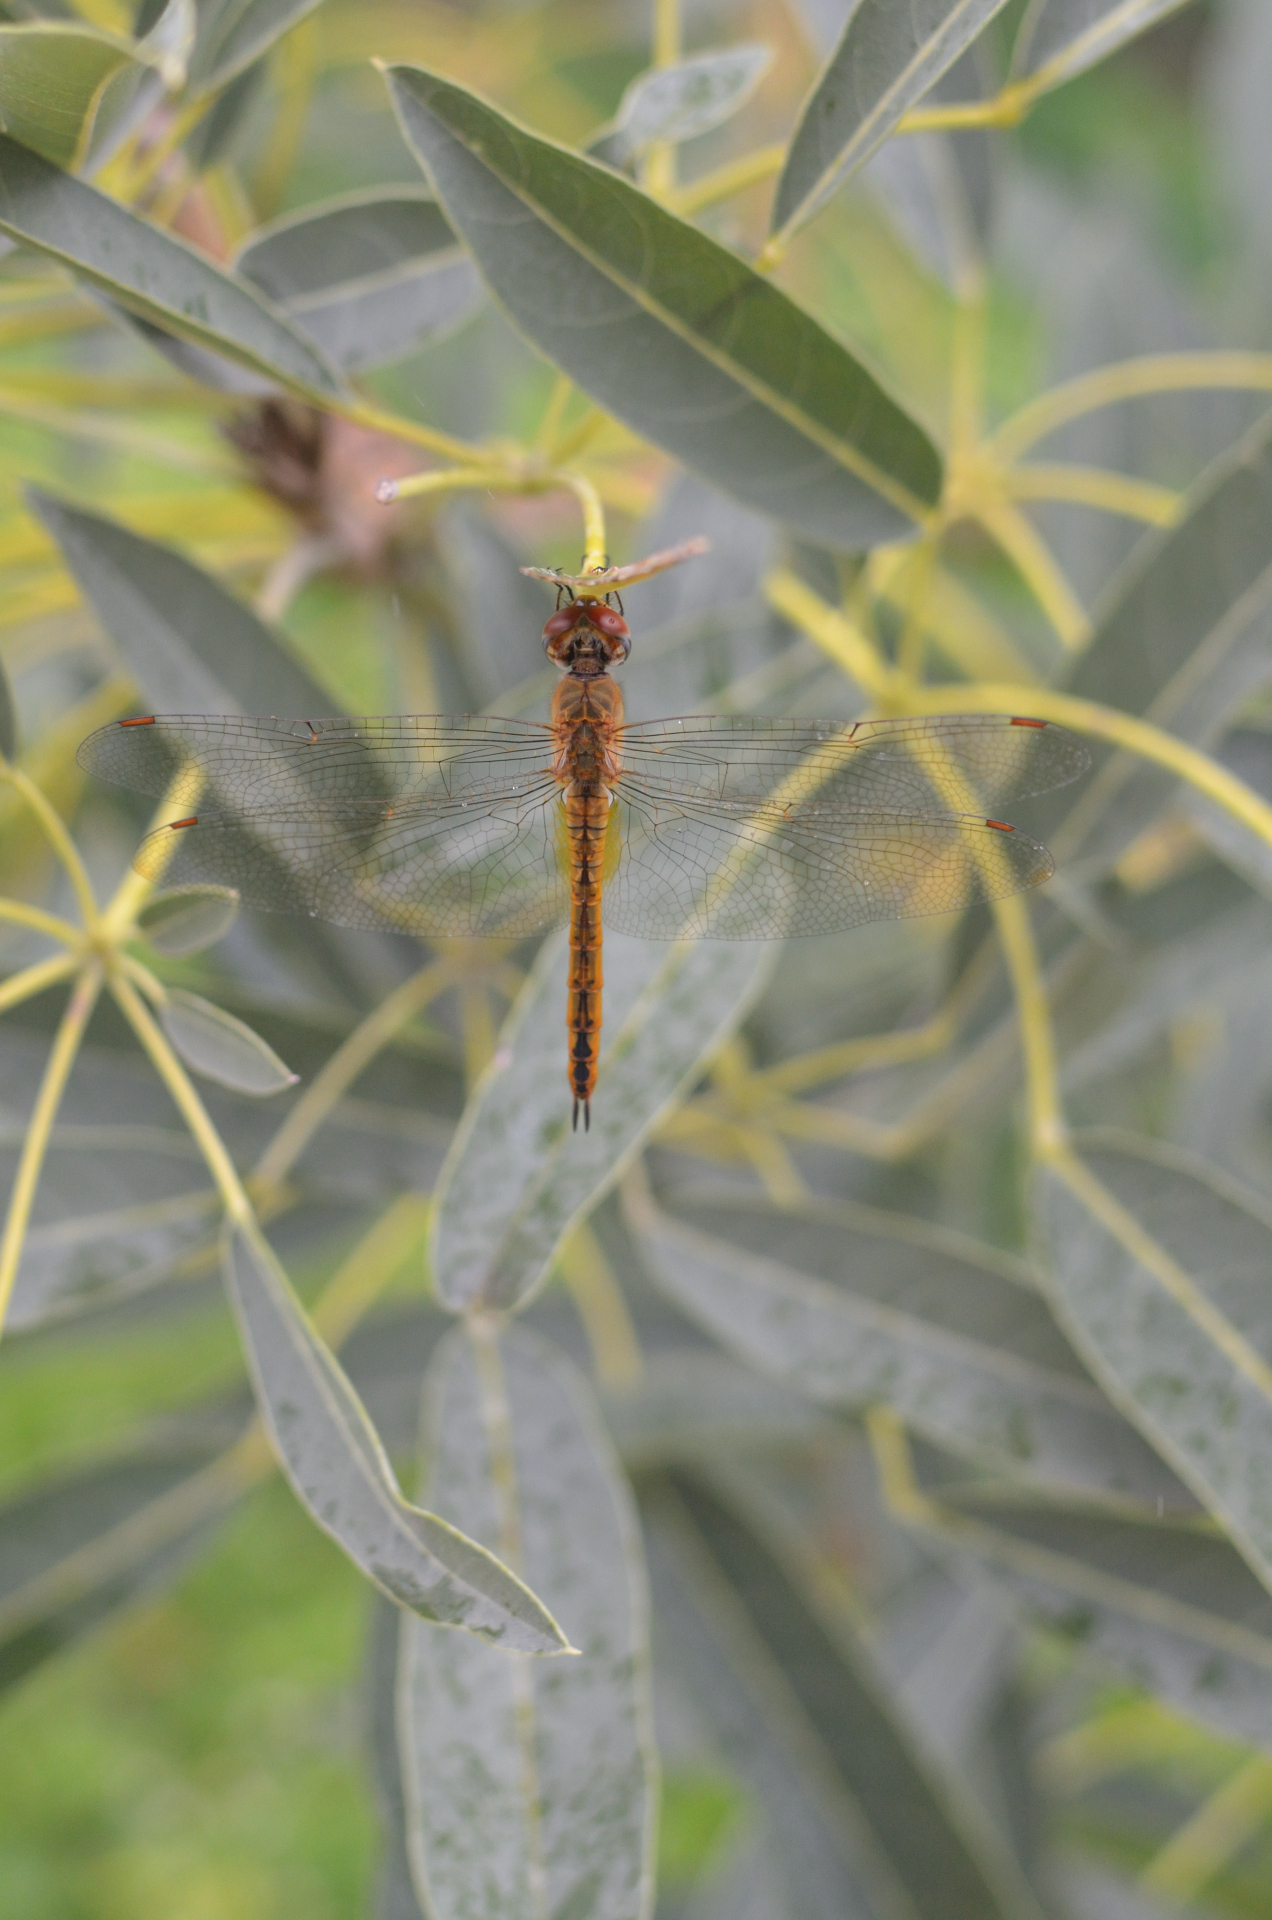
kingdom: Animalia
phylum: Arthropoda
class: Insecta
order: Odonata
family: Libellulidae
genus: Pantala
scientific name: Pantala flavescens
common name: Wandering glider
